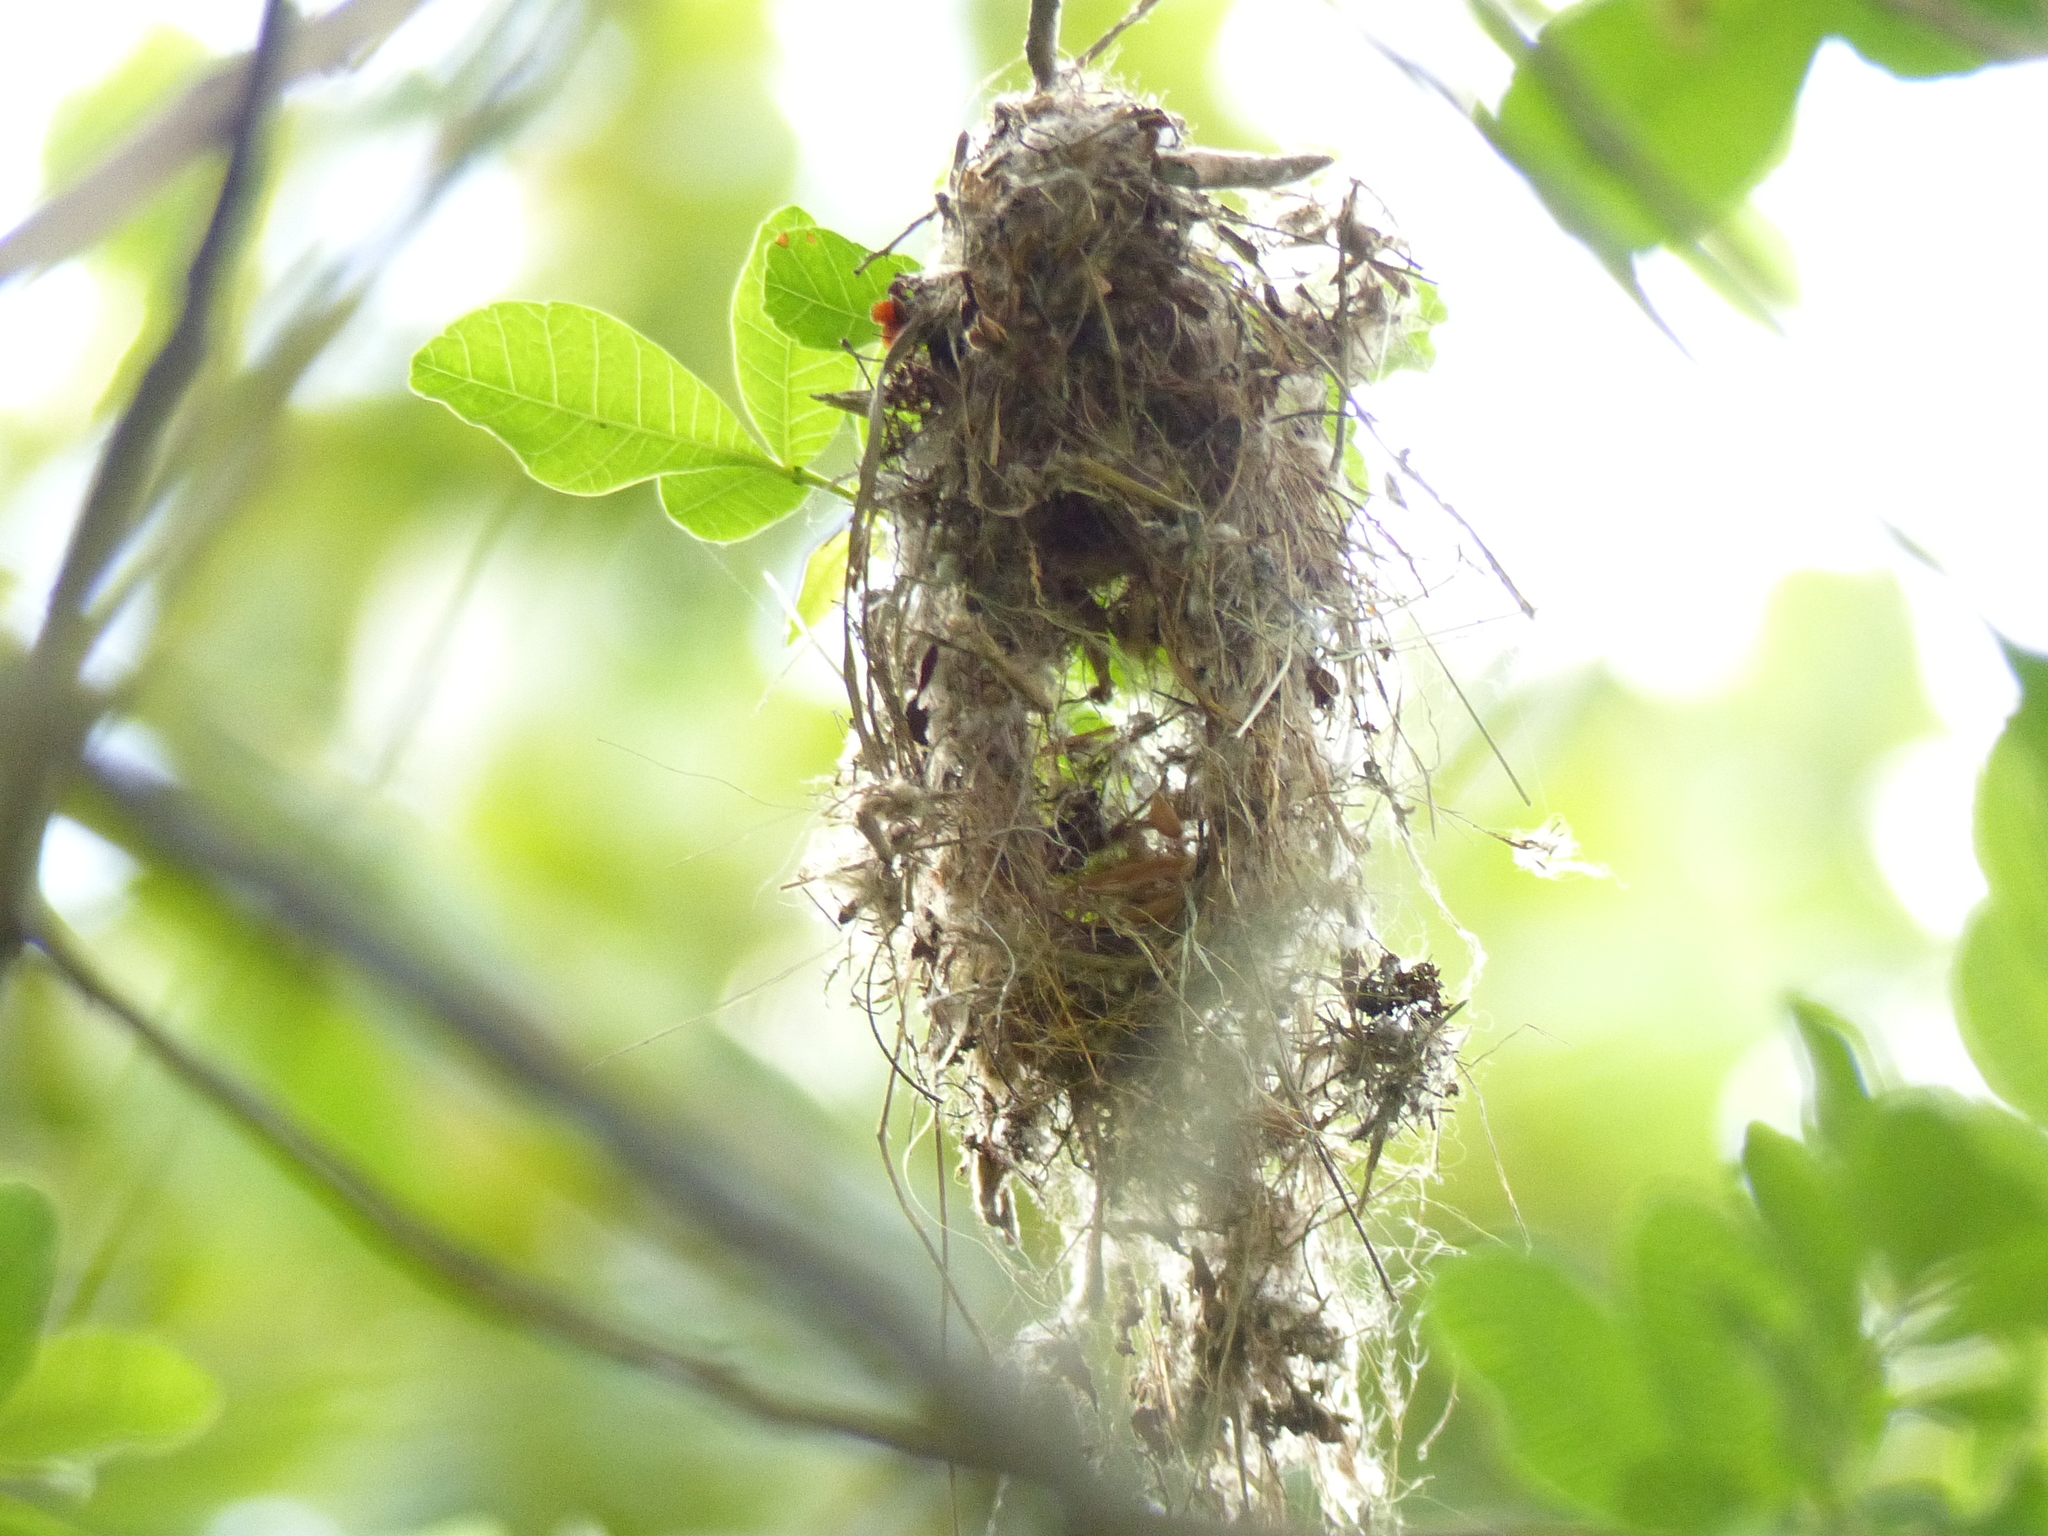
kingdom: Animalia
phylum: Chordata
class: Aves
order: Passeriformes
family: Tyrannidae
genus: Todirostrum
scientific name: Todirostrum cinereum
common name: Common tody-flycatcher
